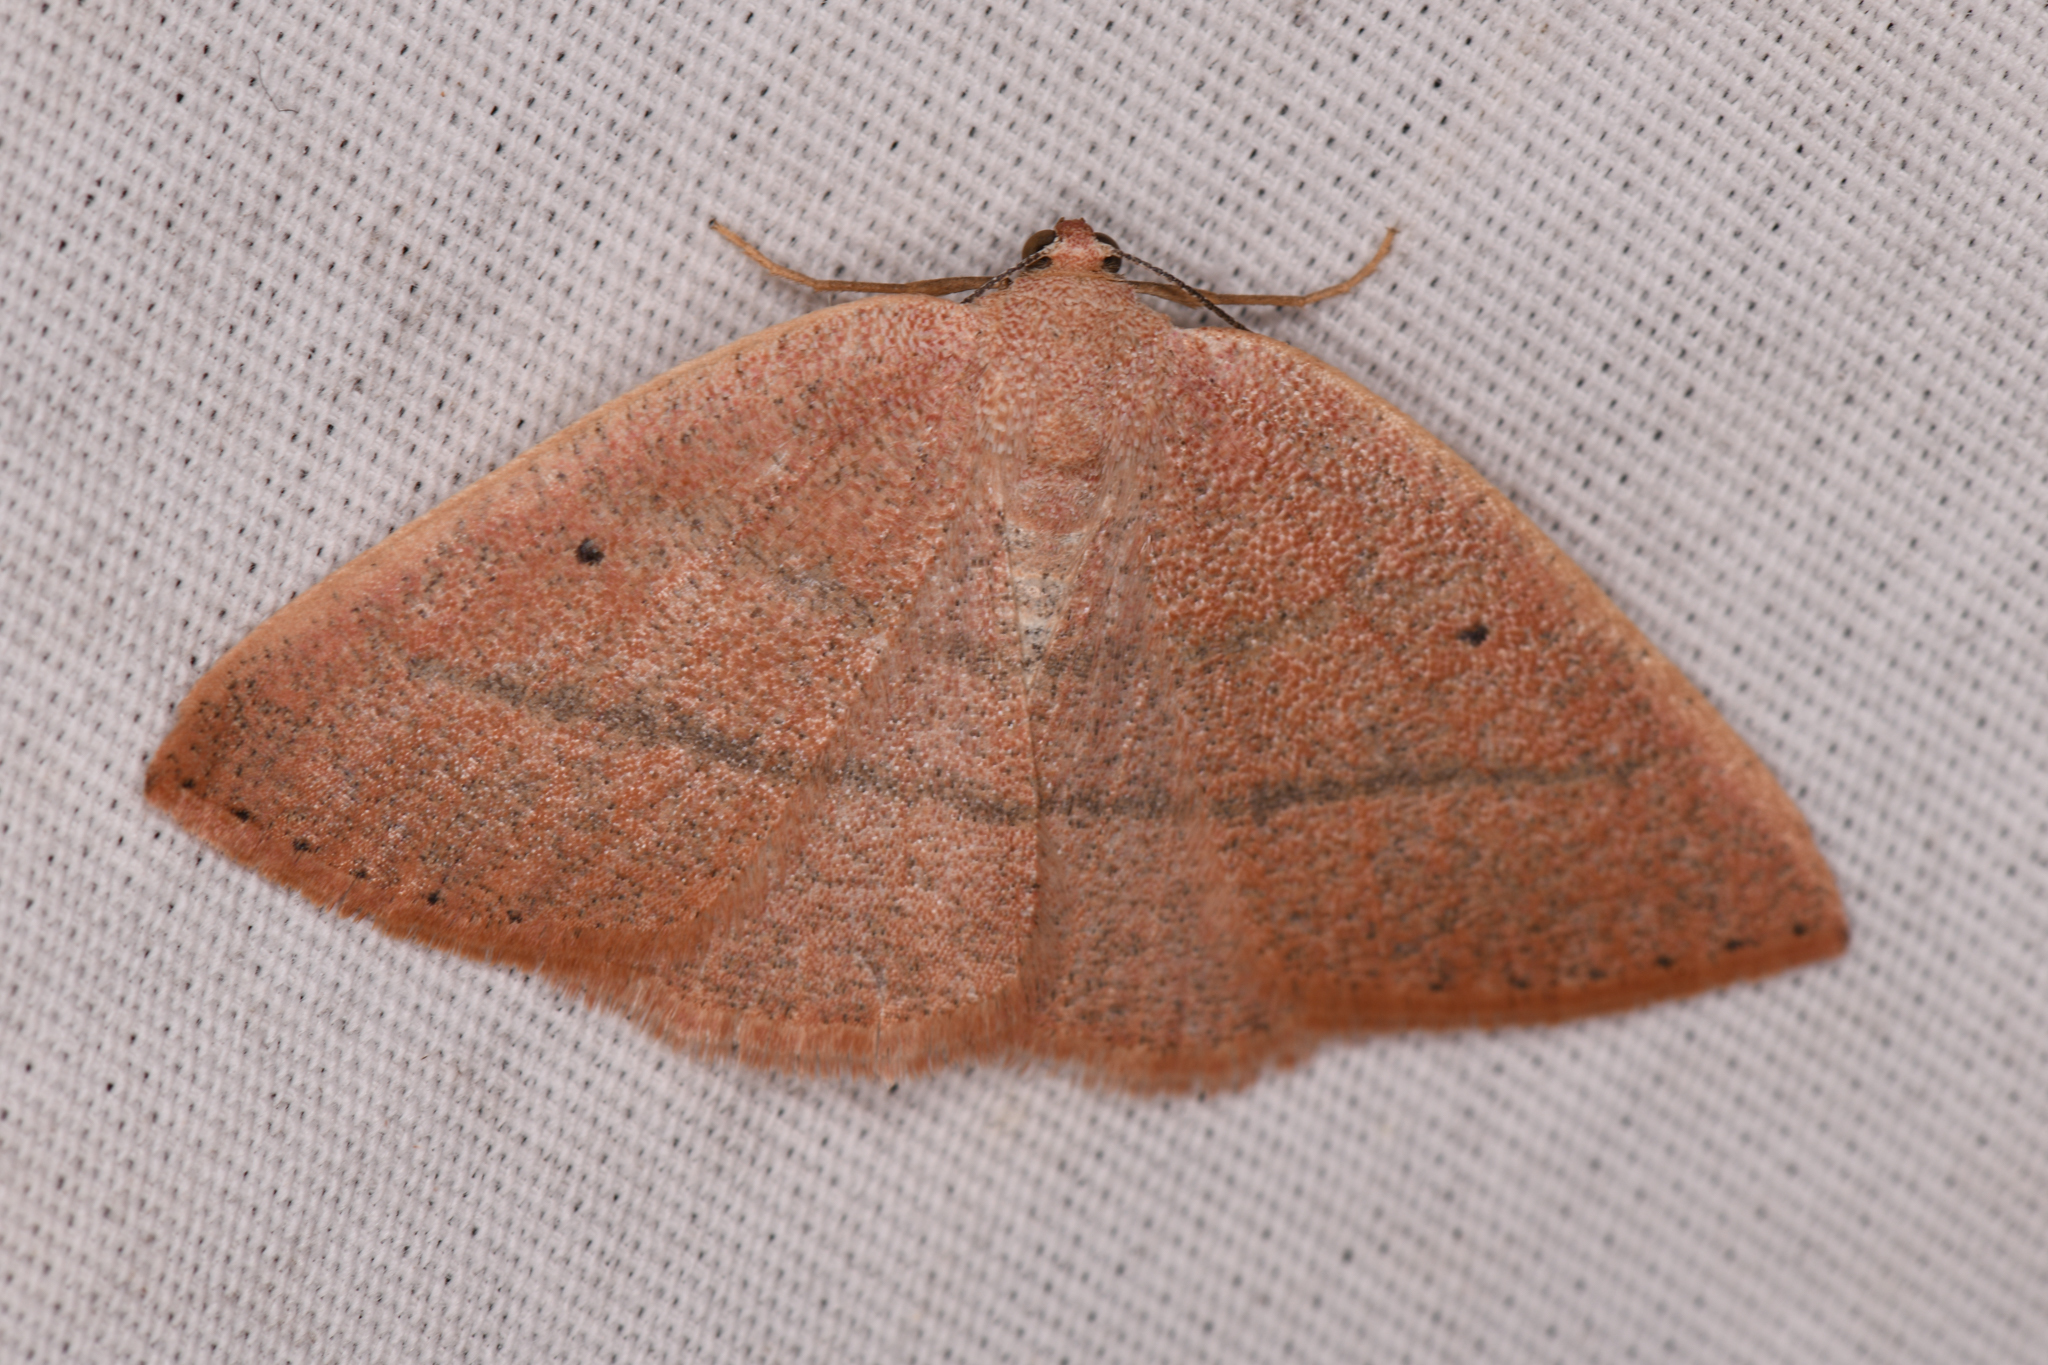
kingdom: Animalia
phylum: Arthropoda
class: Insecta
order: Lepidoptera
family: Geometridae
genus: Eudrepanulatrix
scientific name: Eudrepanulatrix rectifascia
